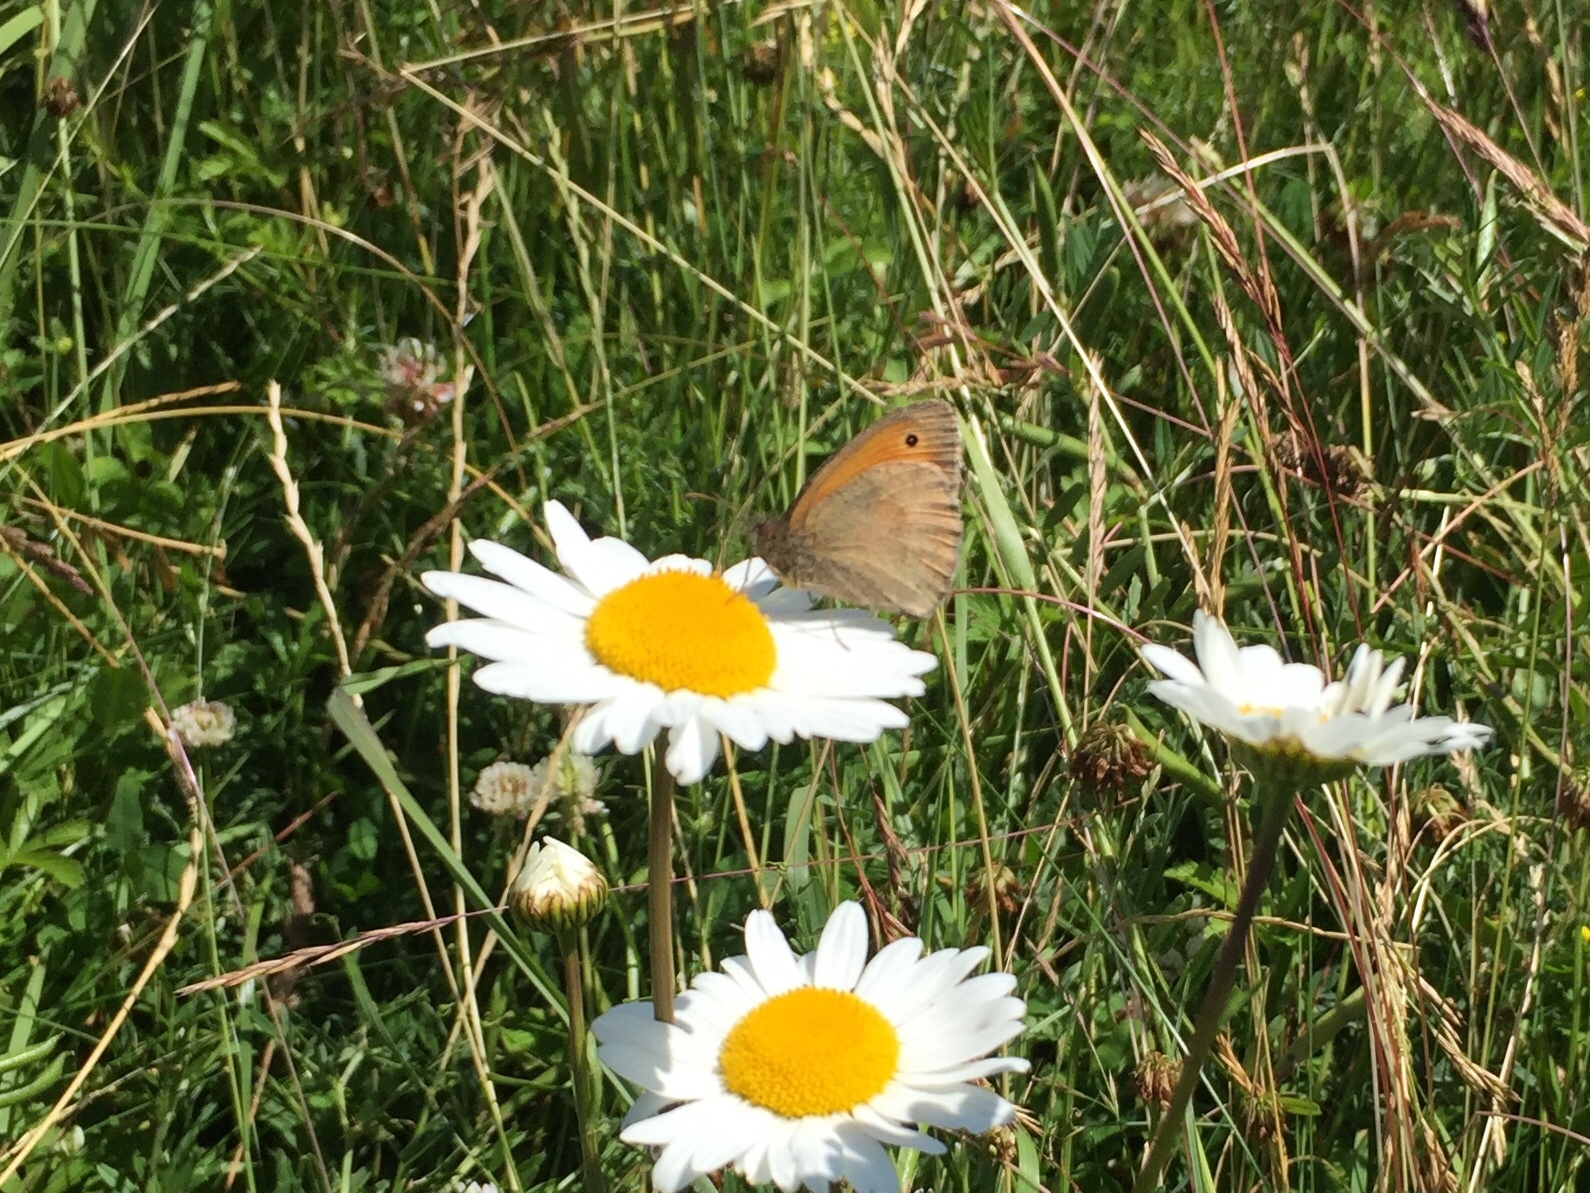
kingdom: Animalia
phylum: Arthropoda
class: Insecta
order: Lepidoptera
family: Nymphalidae
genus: Maniola
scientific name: Maniola jurtina
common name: Meadow brown
